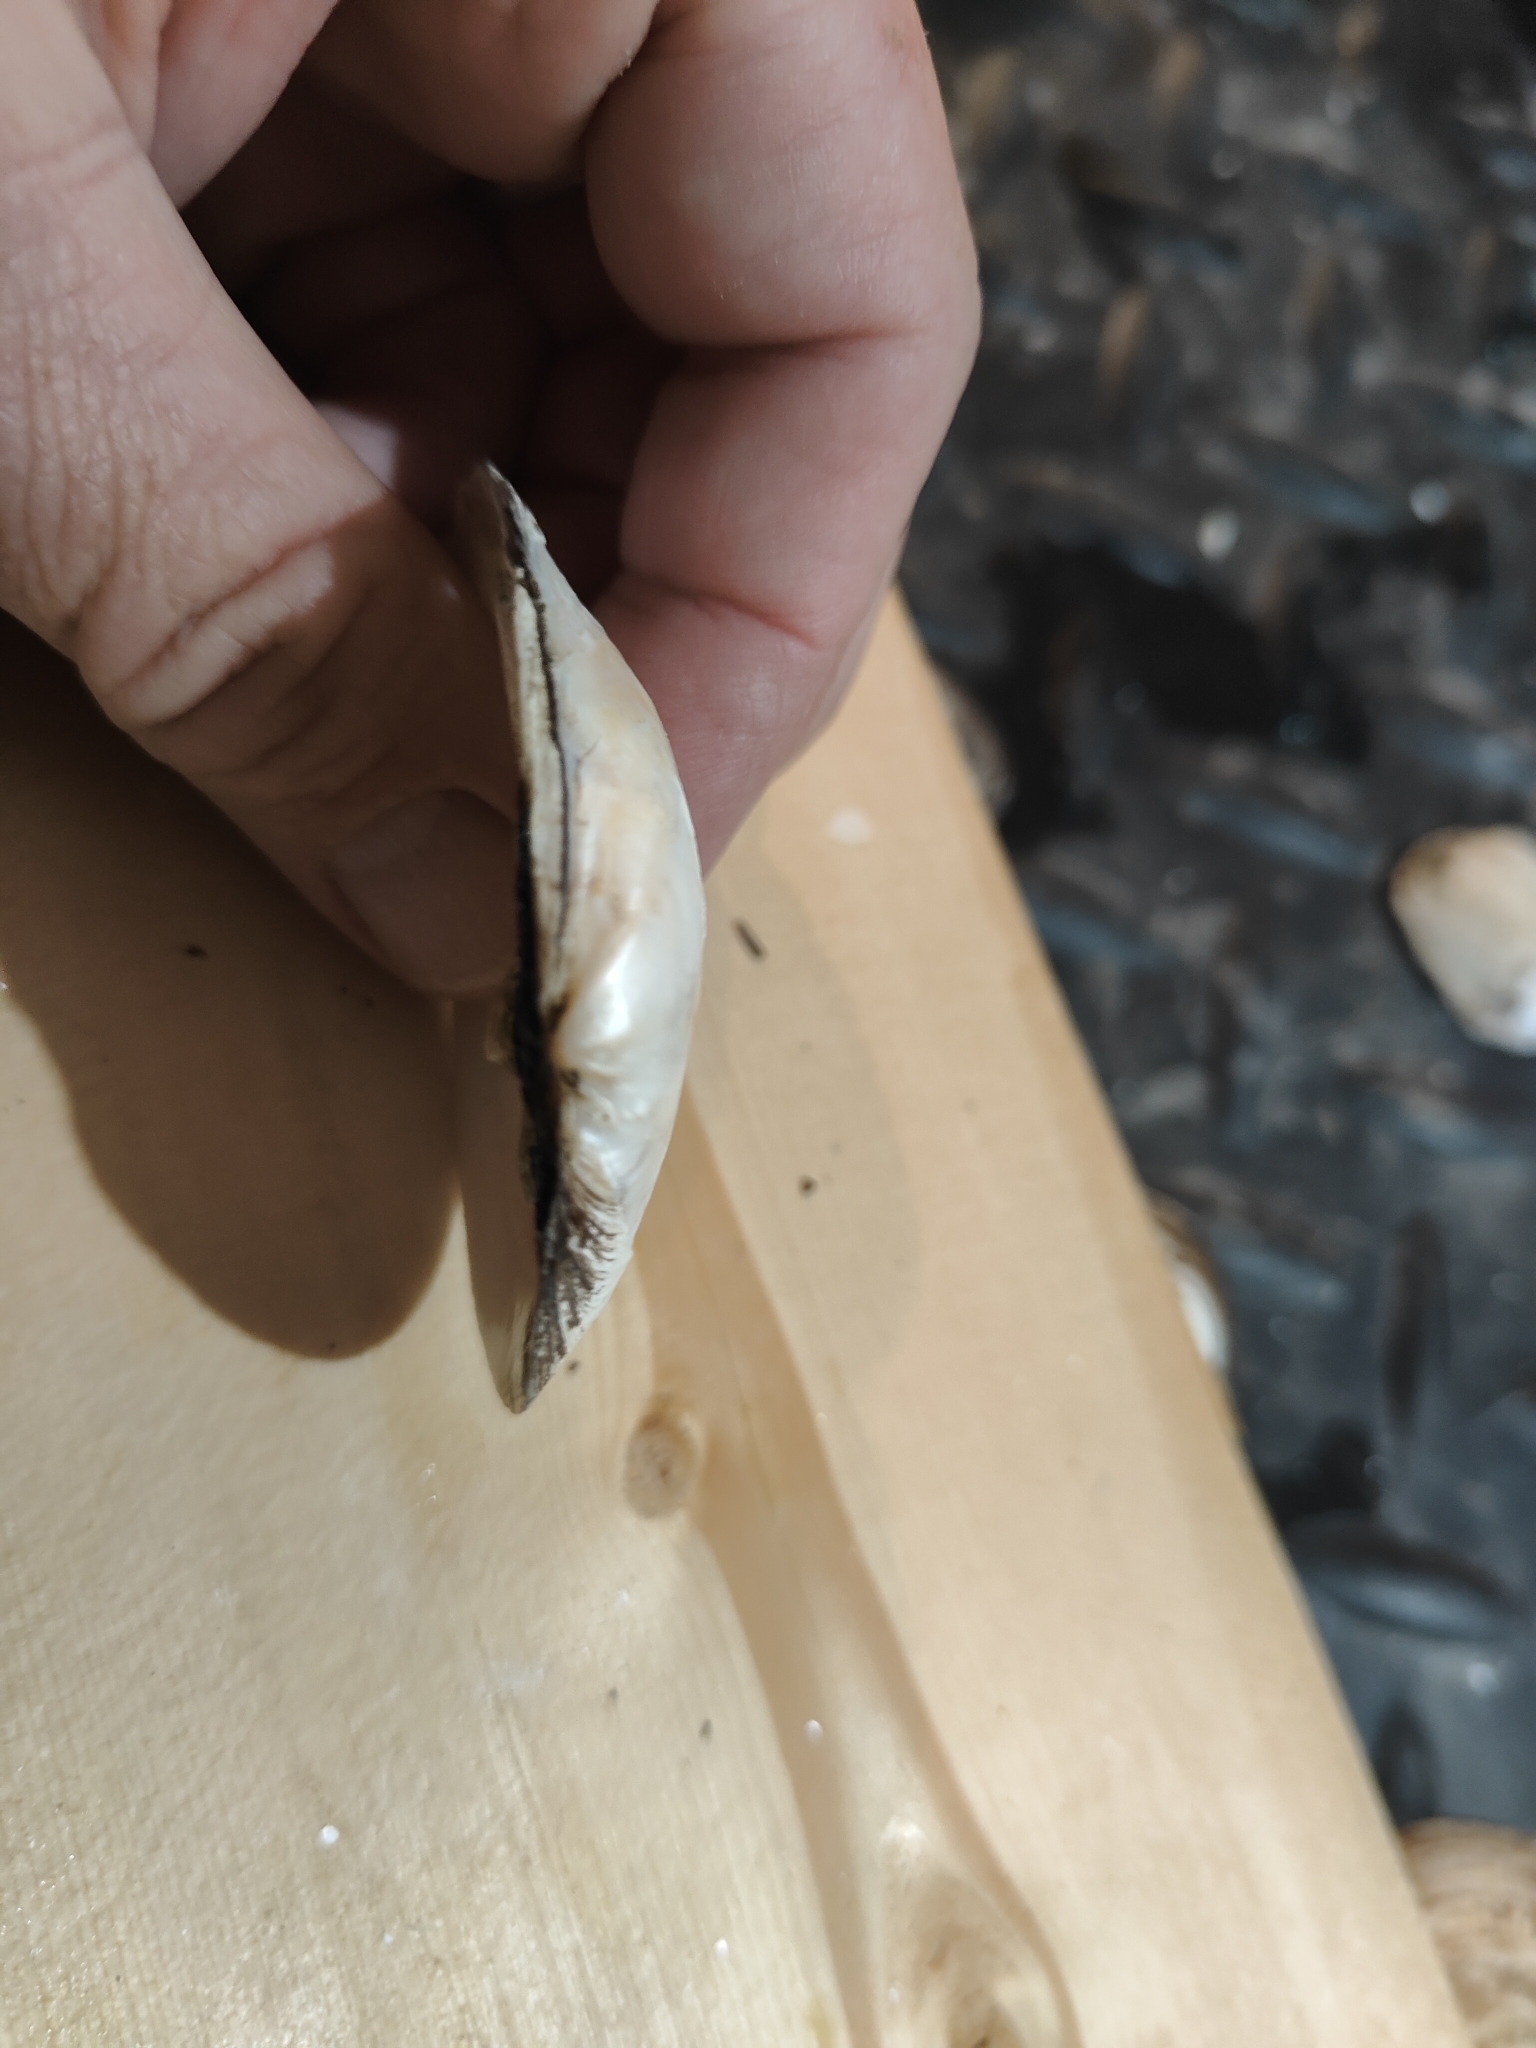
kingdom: Animalia
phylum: Mollusca
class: Bivalvia
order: Unionida
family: Unionidae
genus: Fusconaia
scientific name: Fusconaia flava
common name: Wabash pigtoe
